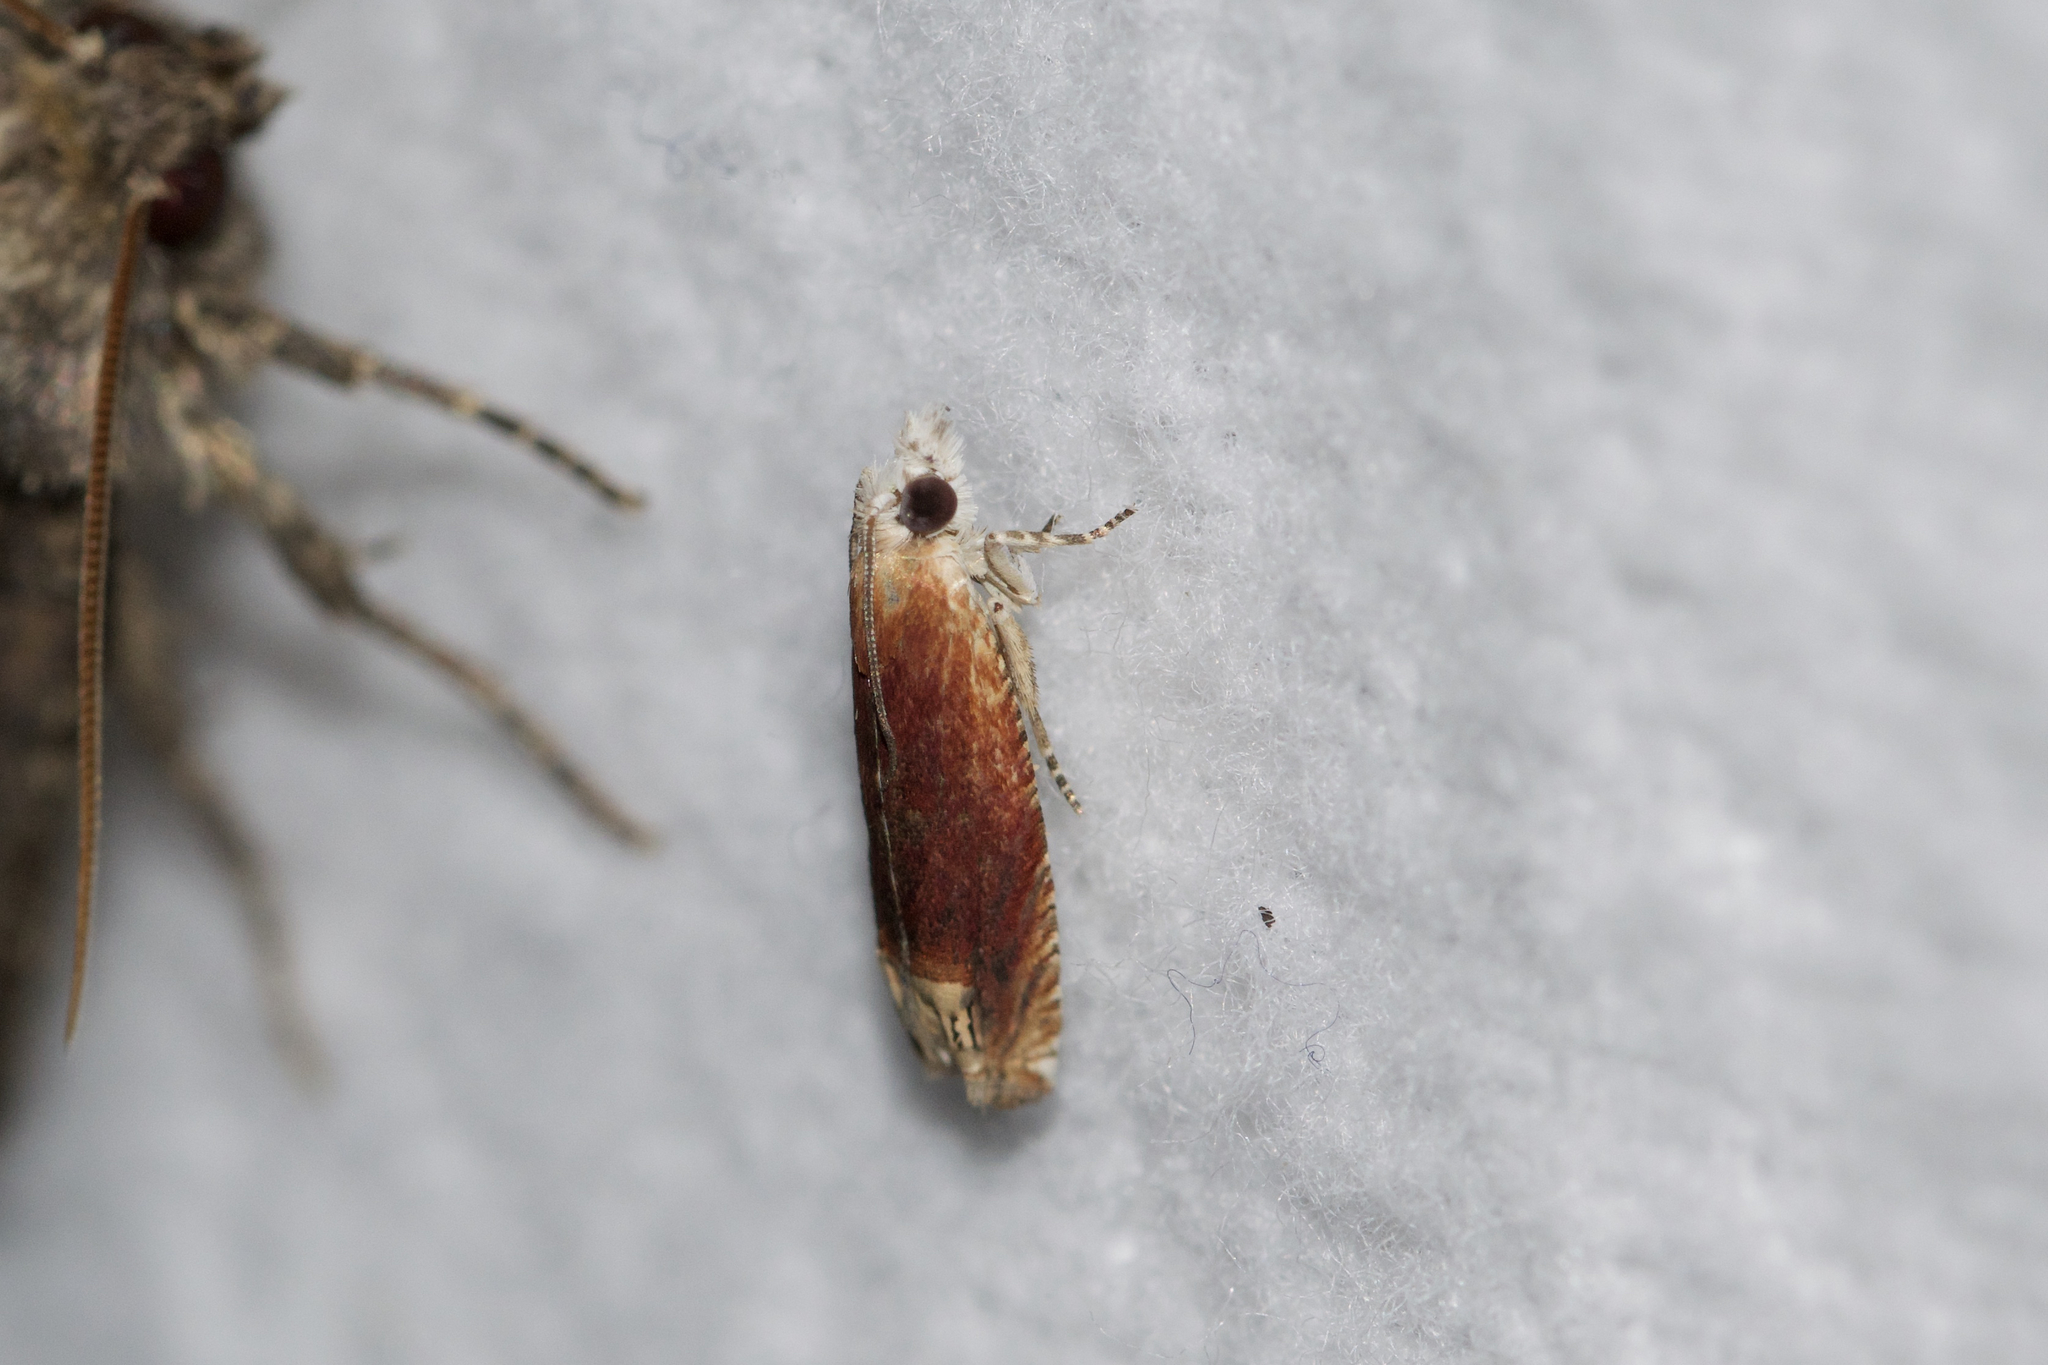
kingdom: Animalia
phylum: Arthropoda
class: Insecta
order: Lepidoptera
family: Tortricidae
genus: Eucosma
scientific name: Eucosma raracana
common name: Reddish eucosma moth
